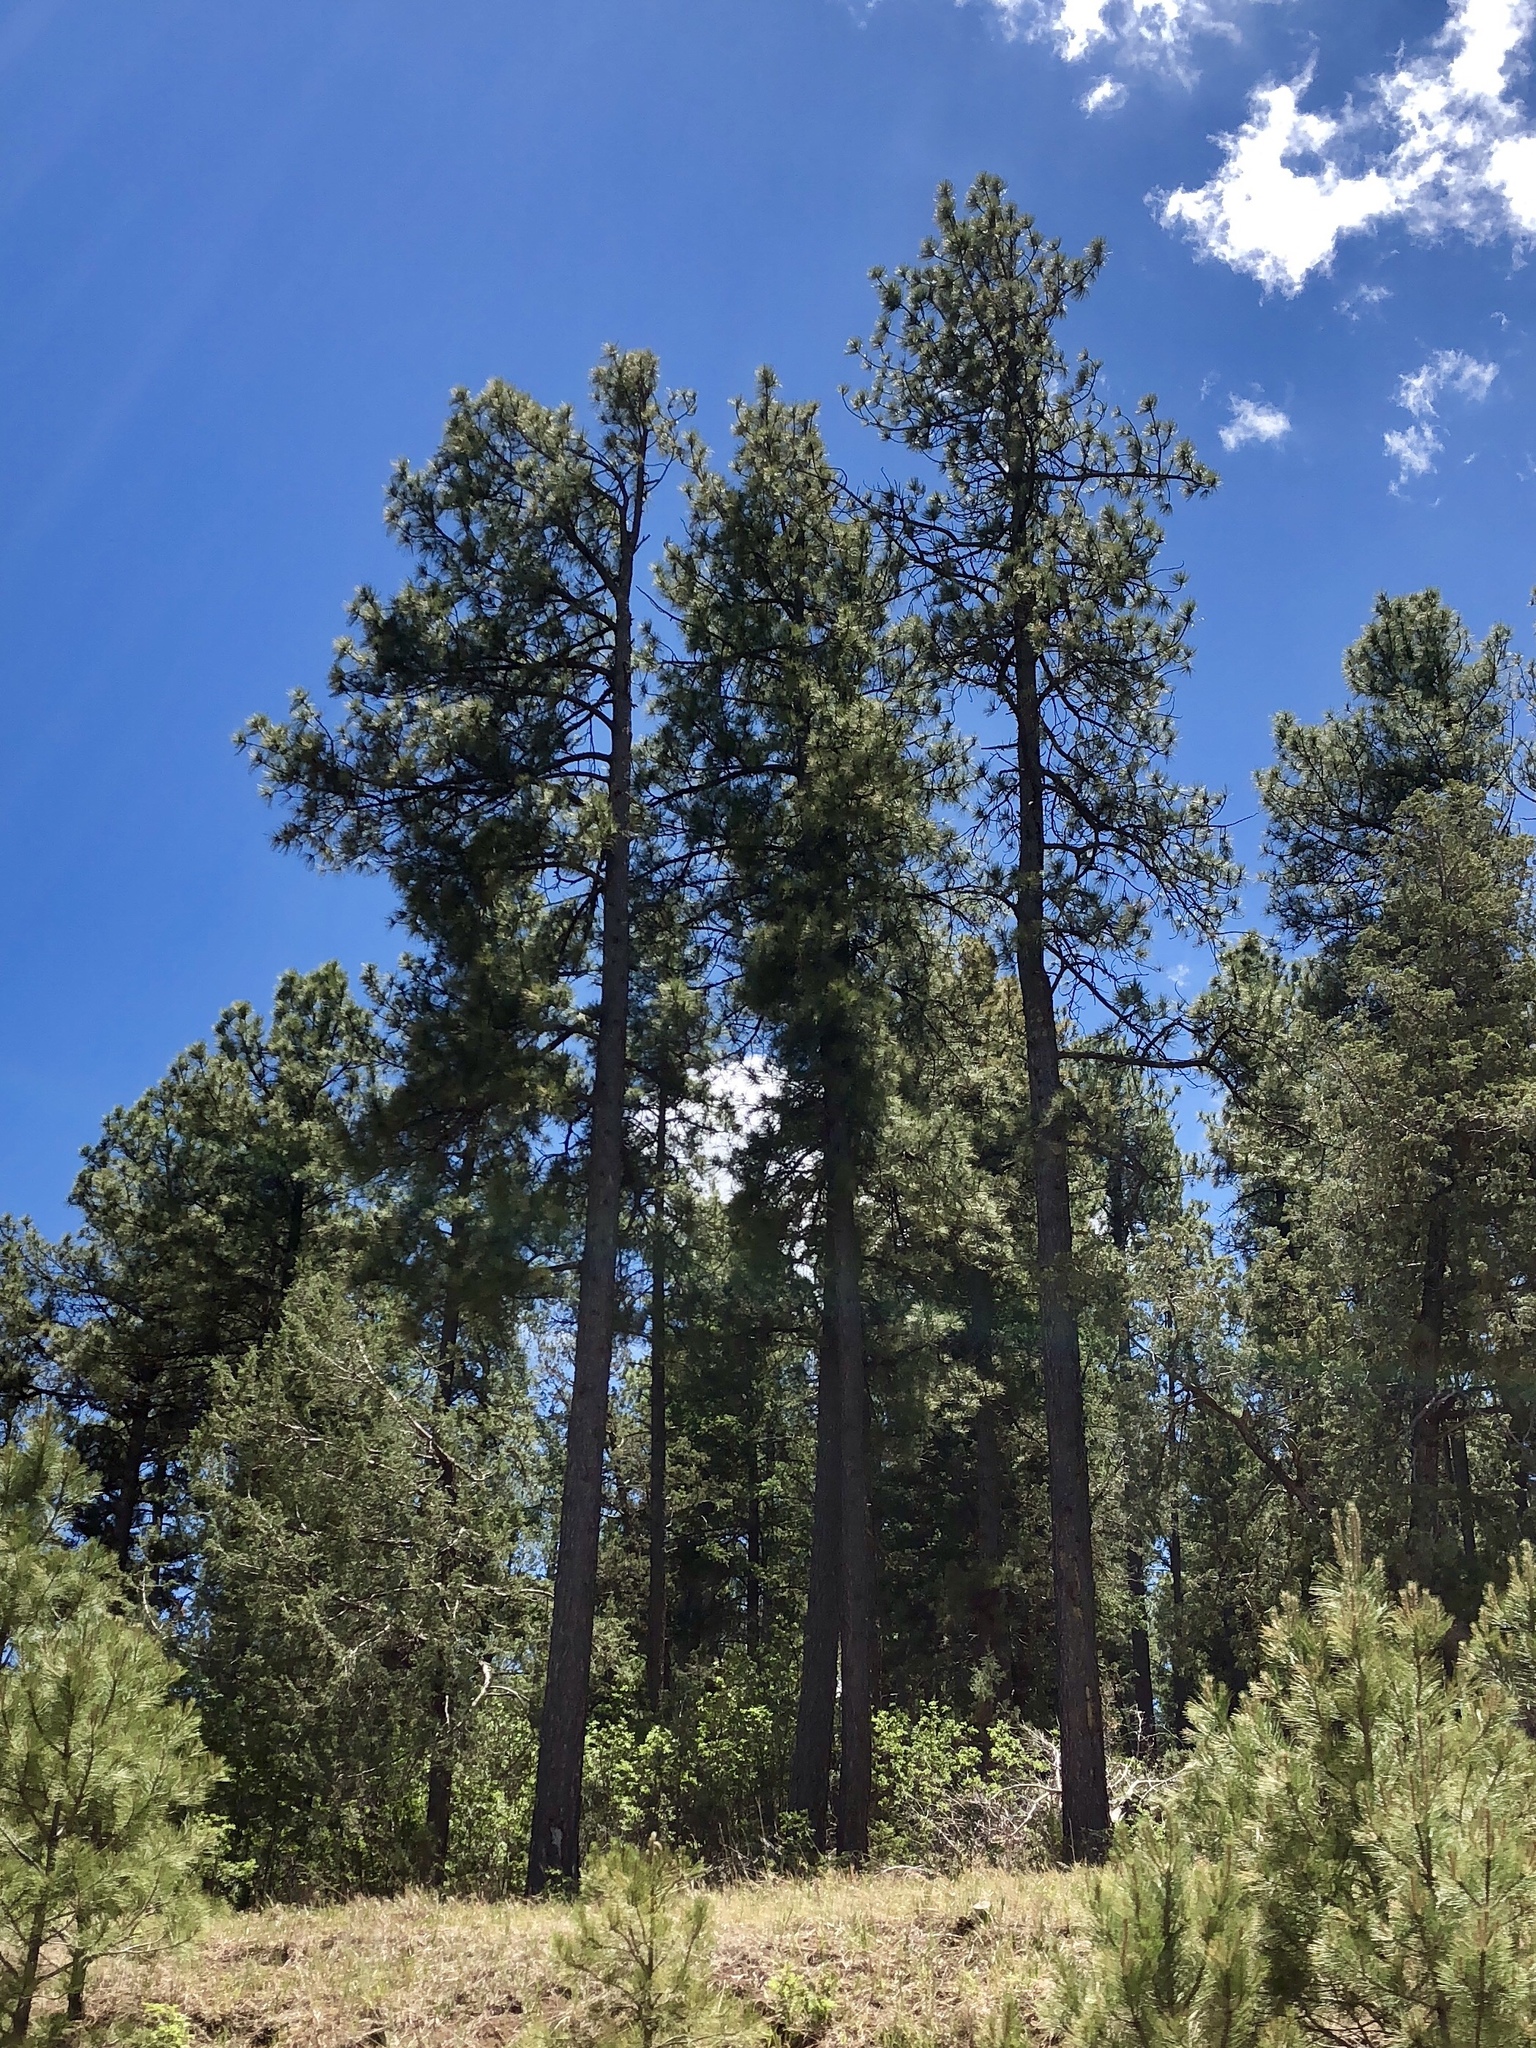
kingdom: Plantae
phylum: Tracheophyta
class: Pinopsida
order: Pinales
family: Pinaceae
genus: Pinus
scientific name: Pinus ponderosa
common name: Western yellow-pine
